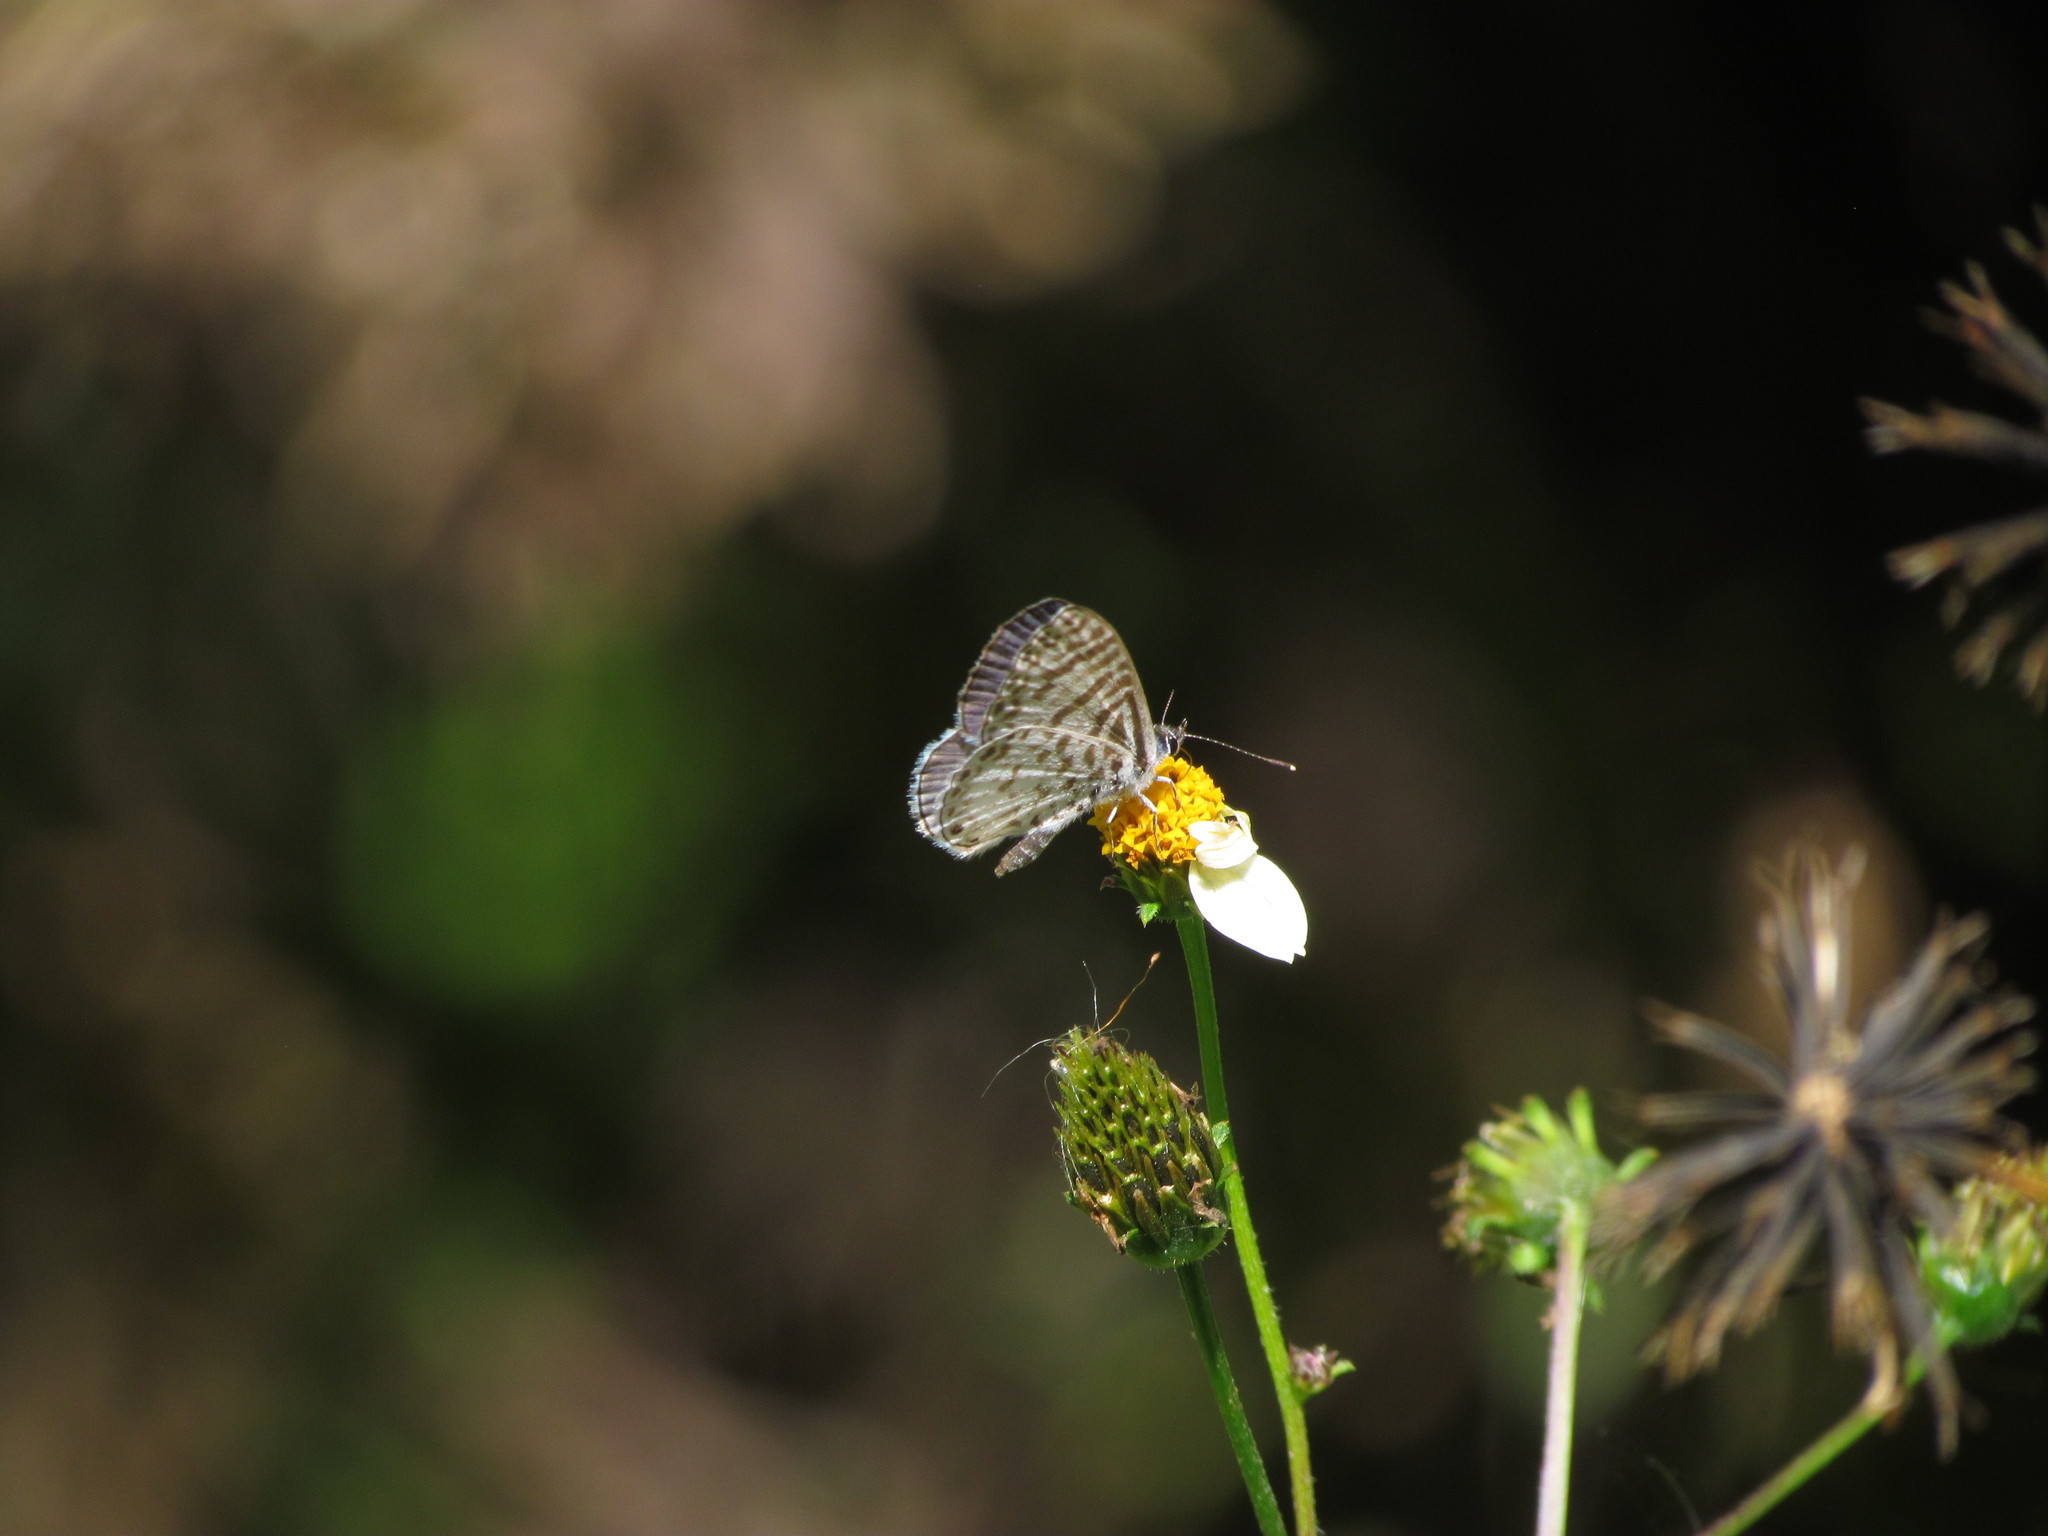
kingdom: Animalia
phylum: Arthropoda
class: Insecta
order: Lepidoptera
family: Lycaenidae
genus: Leptotes
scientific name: Leptotes cassius
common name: Cassius blue
